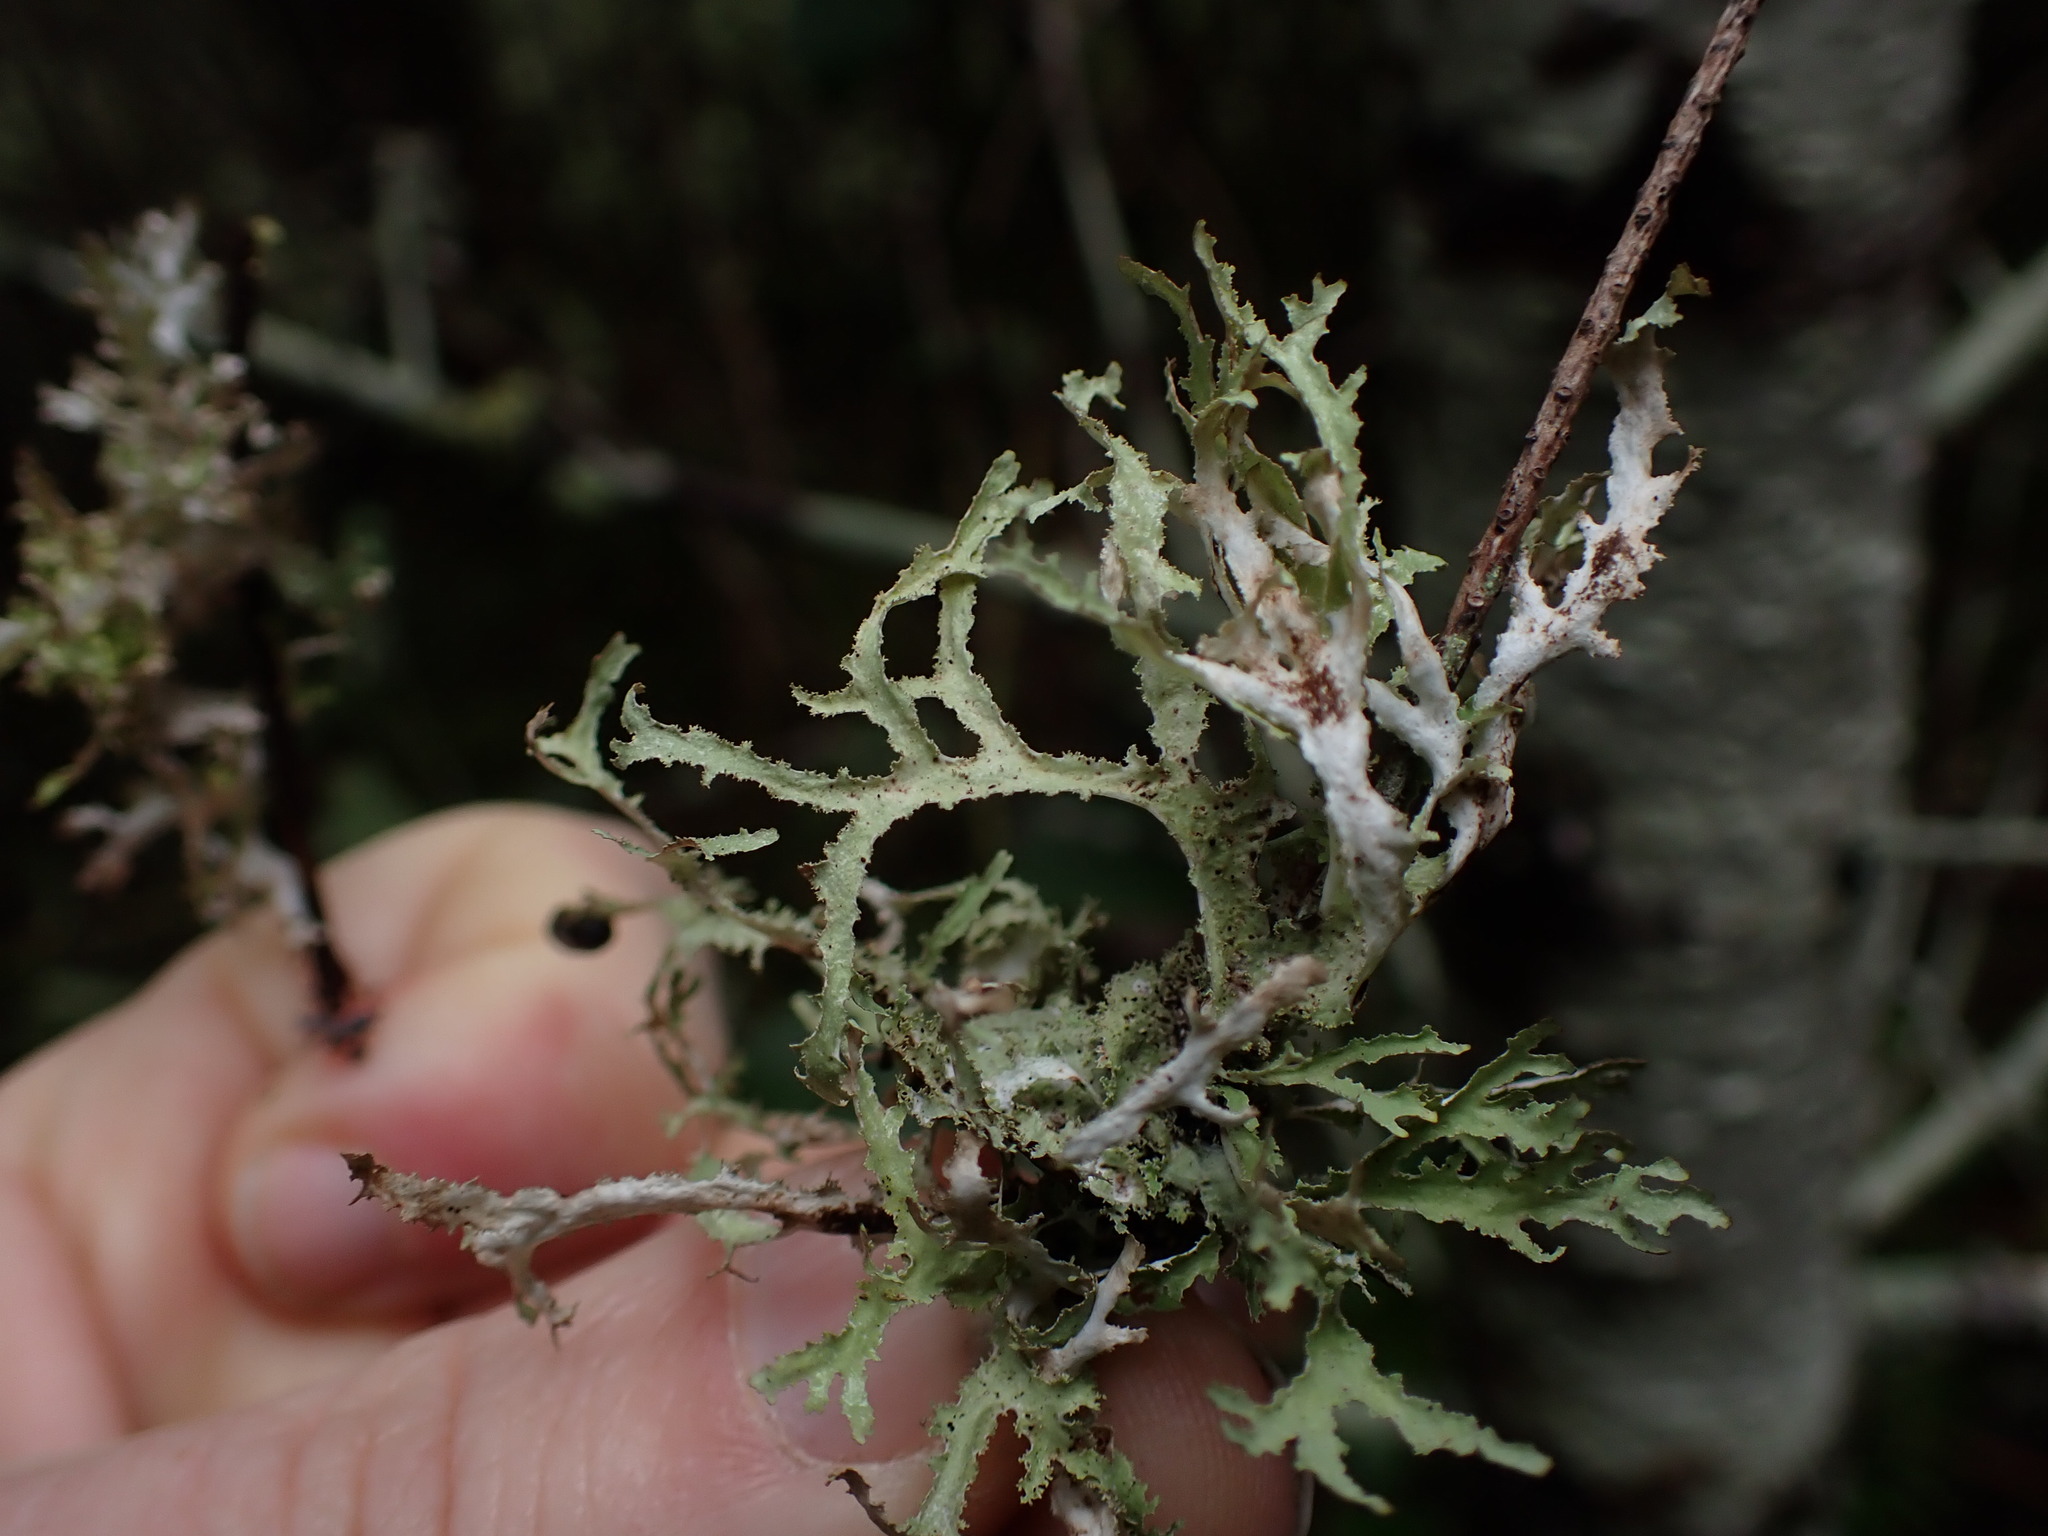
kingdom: Fungi
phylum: Ascomycota
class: Lecanoromycetes
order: Lecanorales
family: Parmeliaceae
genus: Platismatia
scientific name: Platismatia herrei
